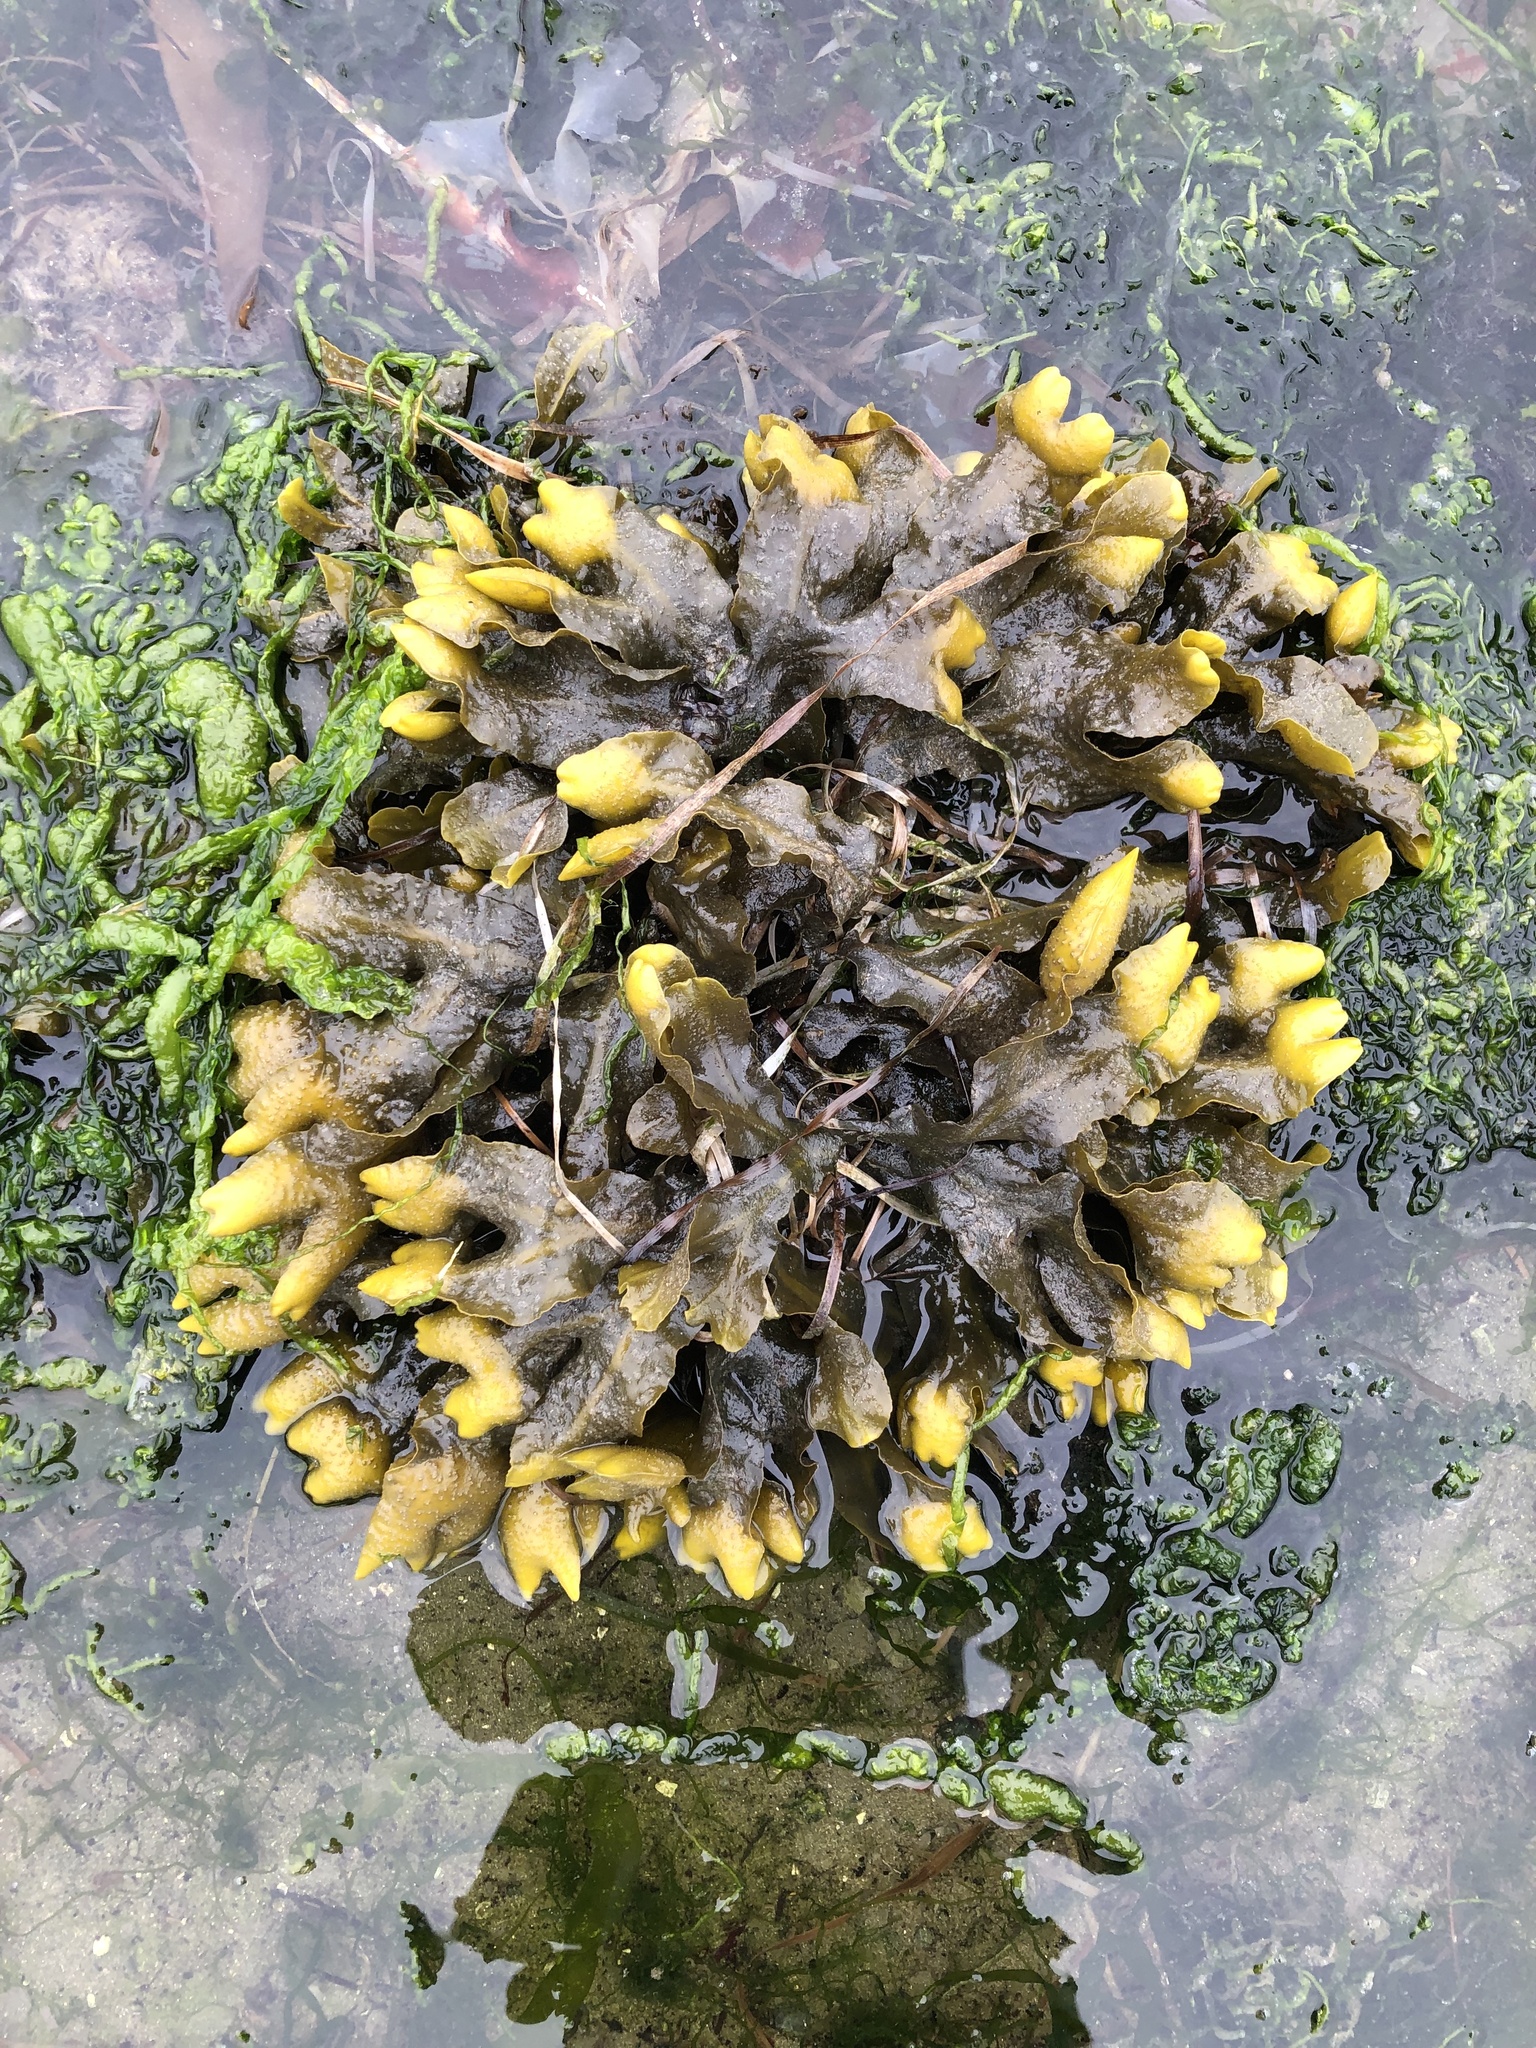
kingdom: Chromista
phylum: Ochrophyta
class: Phaeophyceae
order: Fucales
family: Fucaceae
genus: Fucus
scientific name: Fucus distichus
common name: Rockweed
